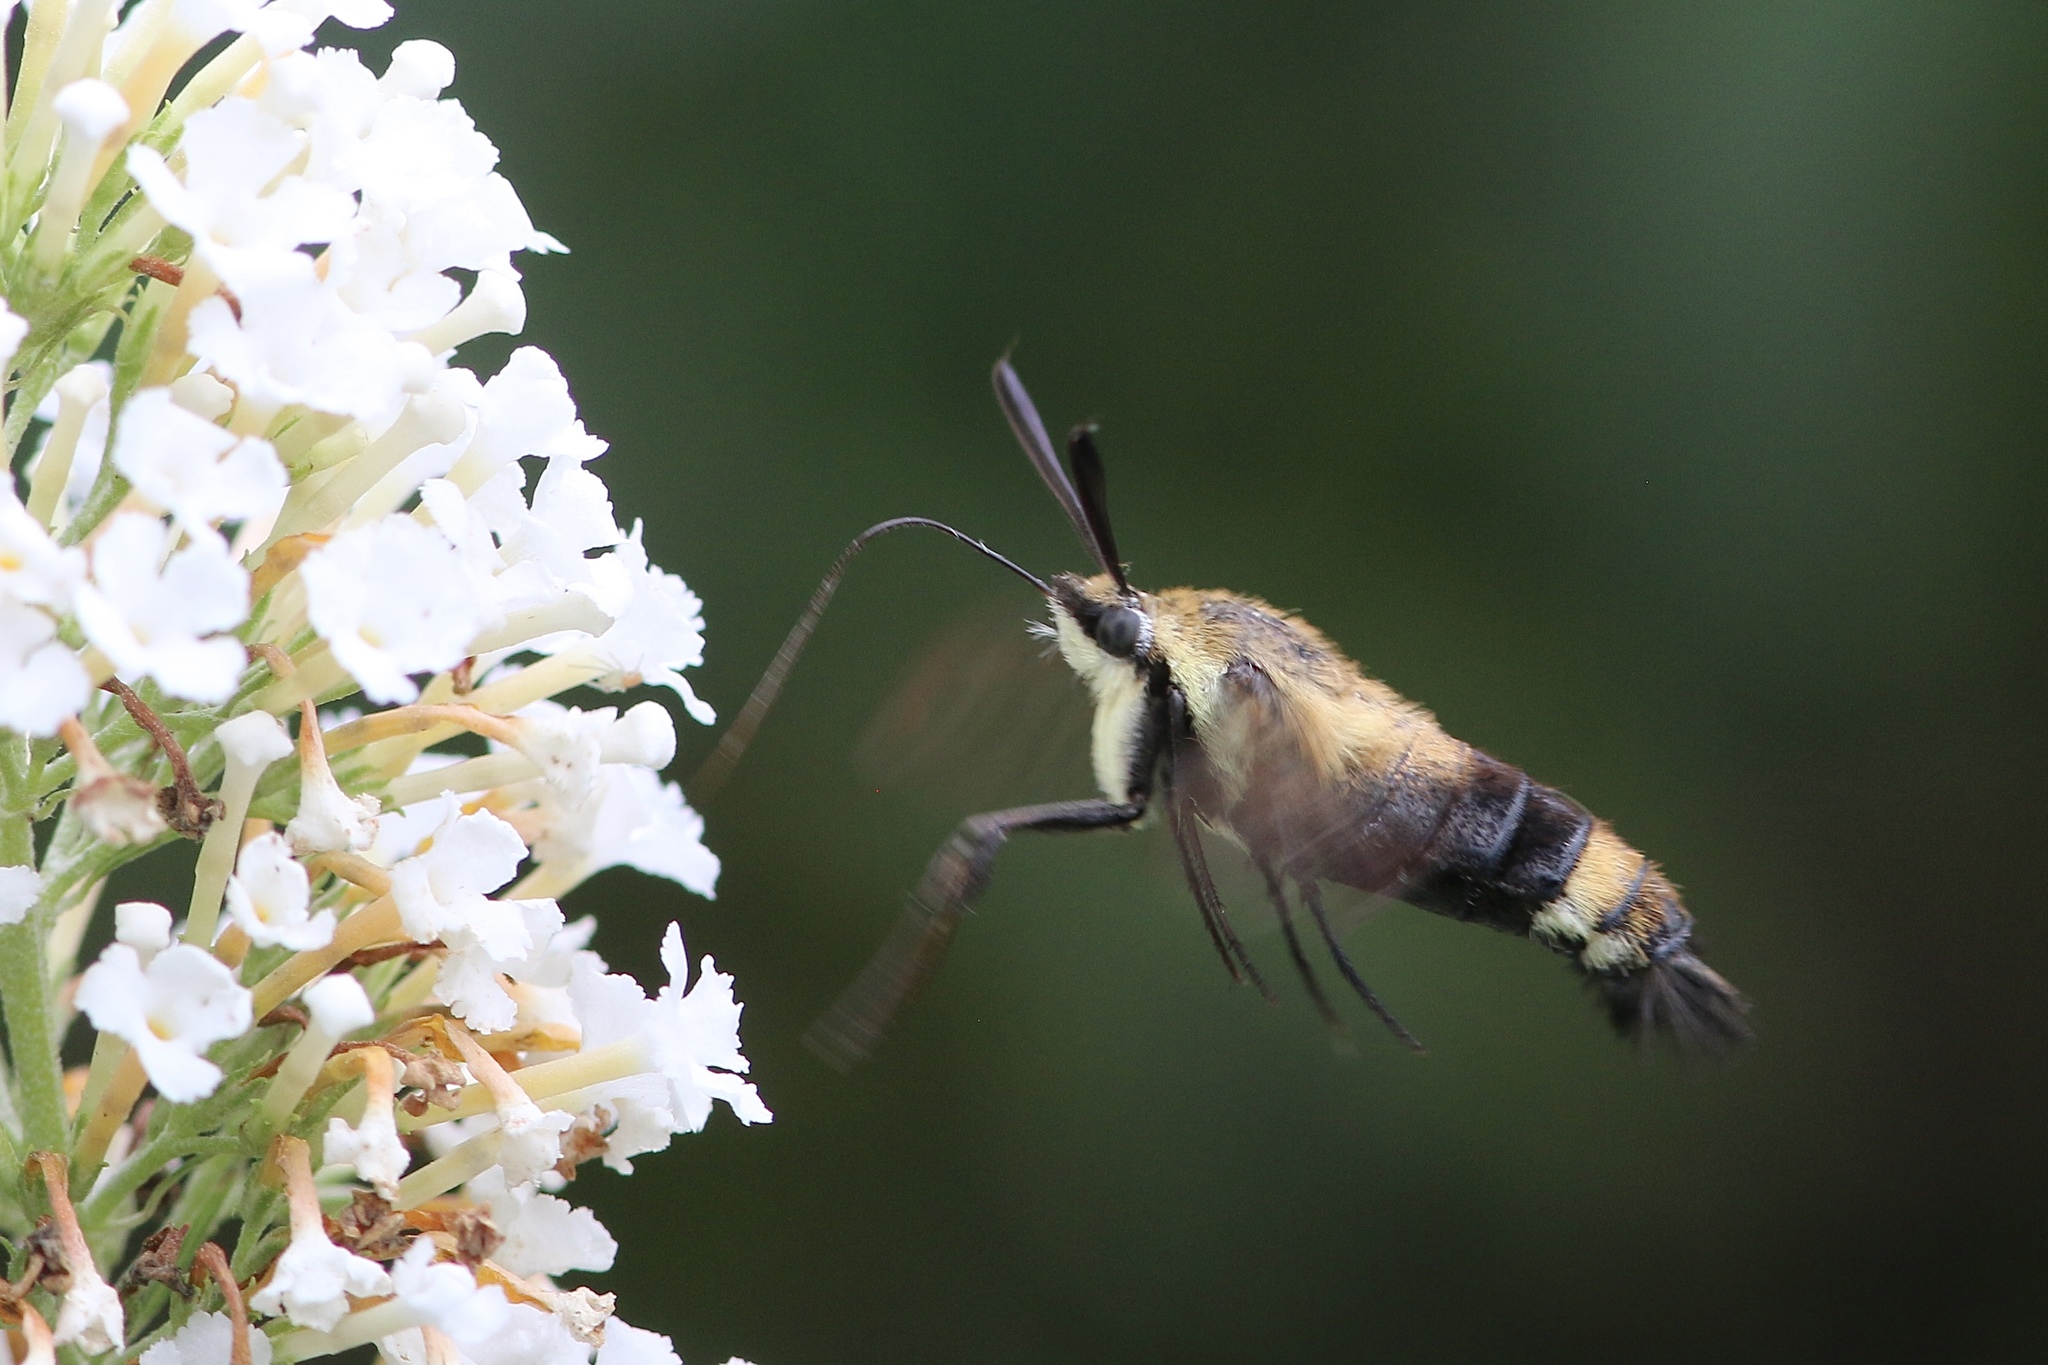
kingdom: Animalia
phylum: Arthropoda
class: Insecta
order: Lepidoptera
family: Sphingidae
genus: Hemaris
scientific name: Hemaris diffinis
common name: Bumblebee moth
